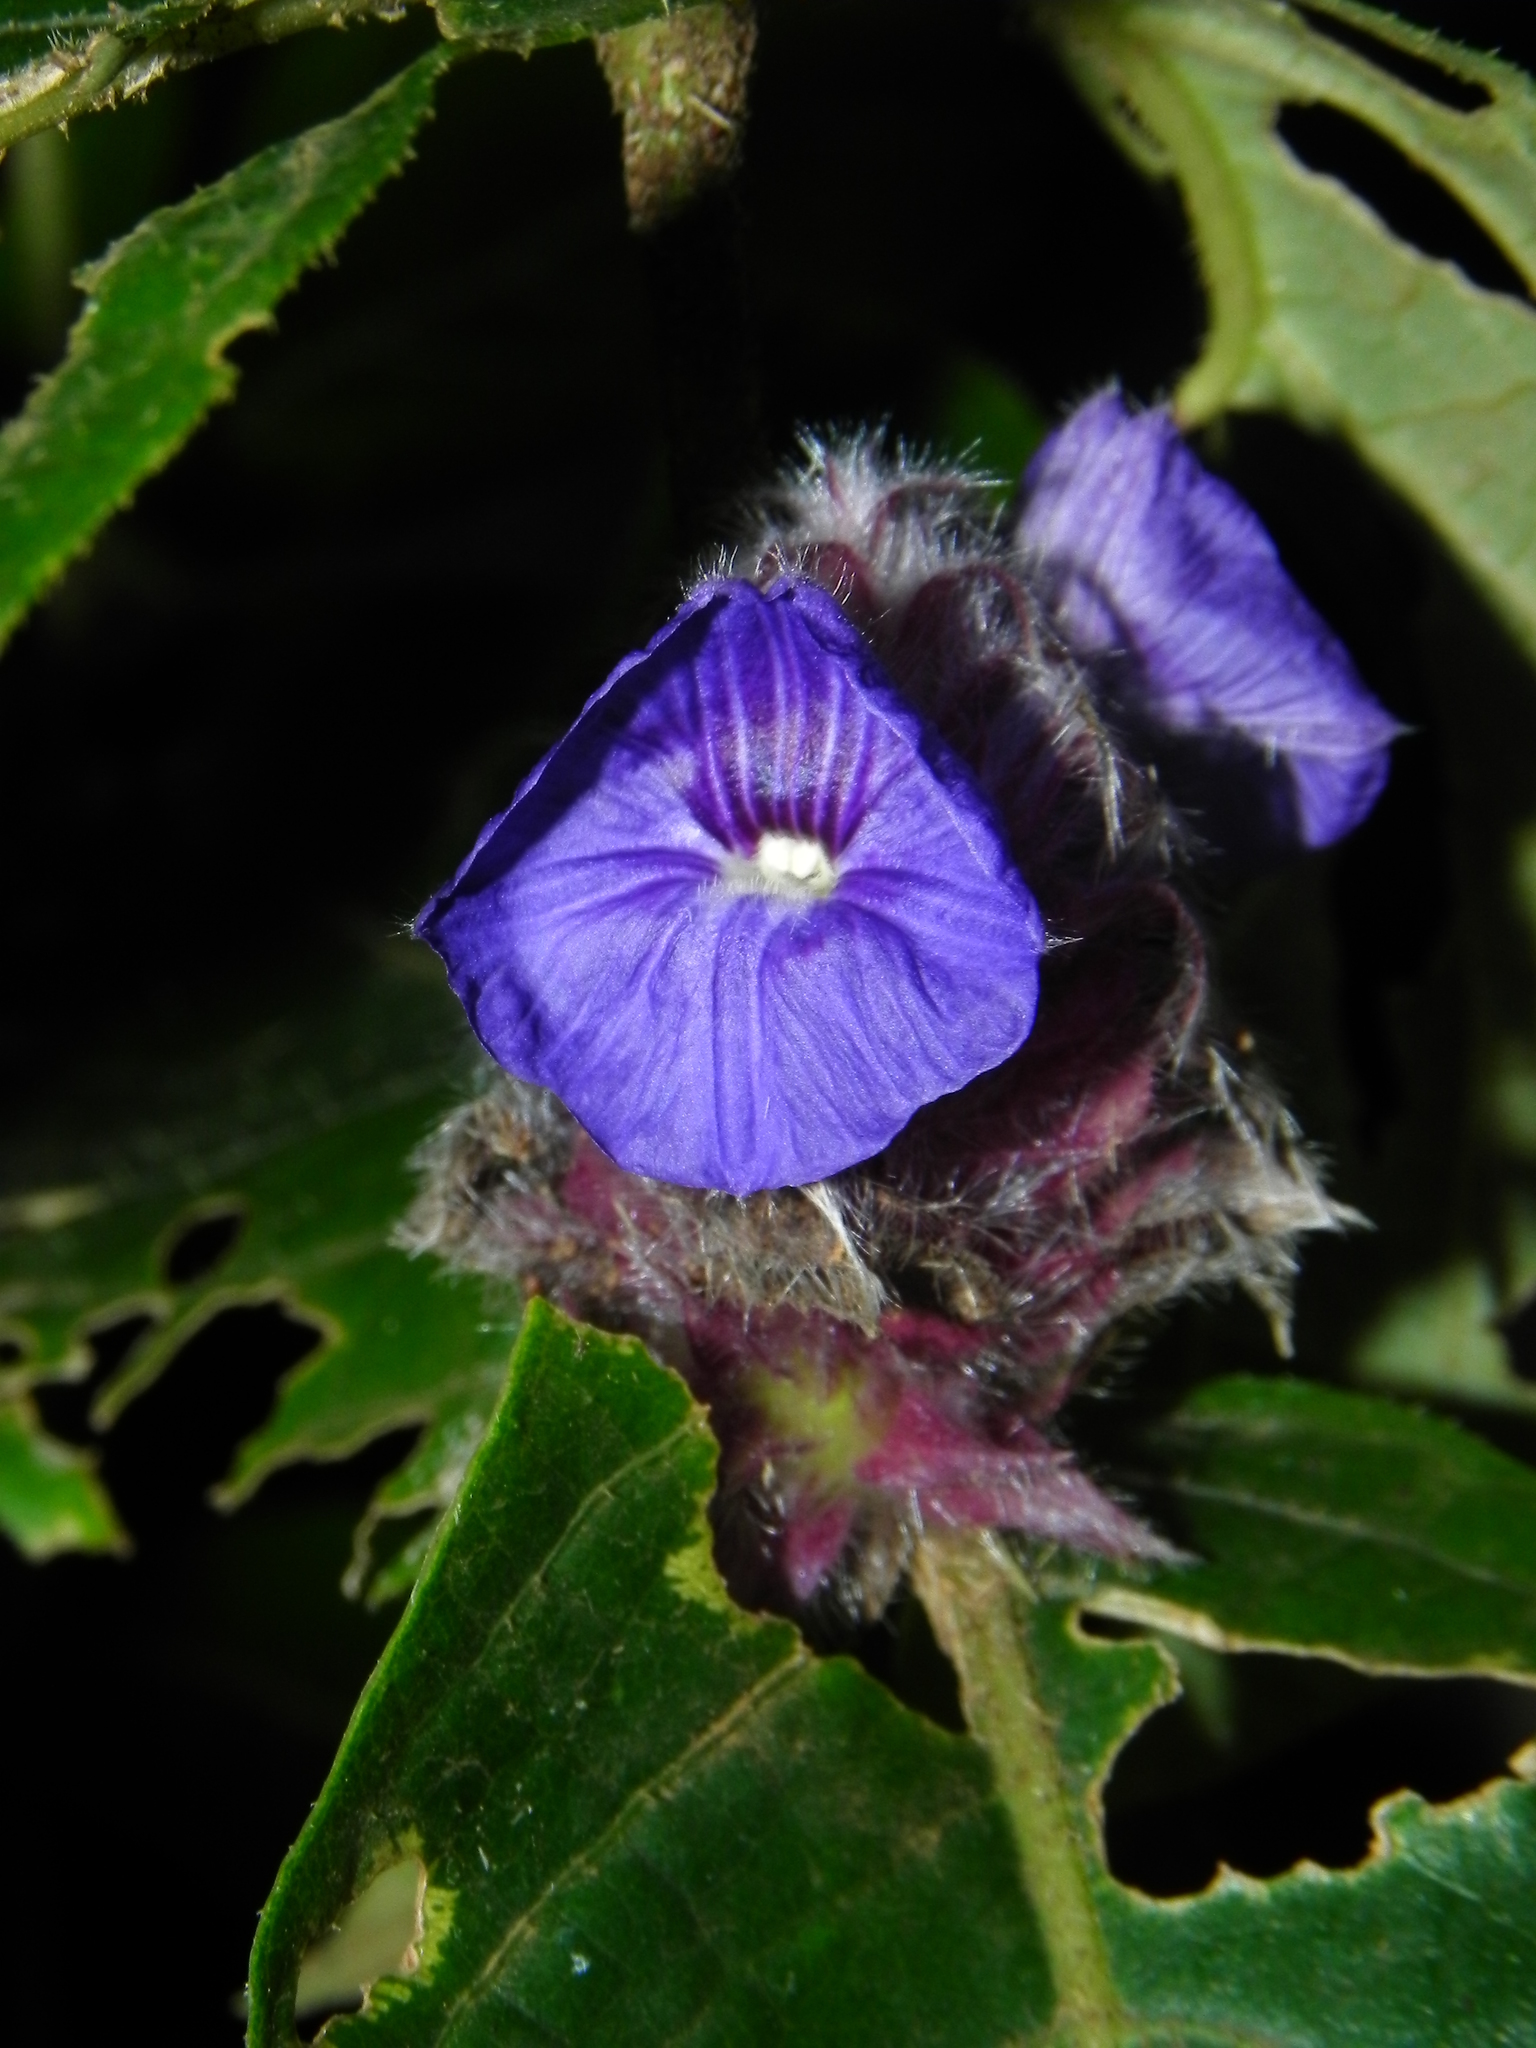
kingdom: Plantae
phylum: Tracheophyta
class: Magnoliopsida
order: Lamiales
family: Acanthaceae
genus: Neuracanthus
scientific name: Neuracanthus sphaerostachyus
